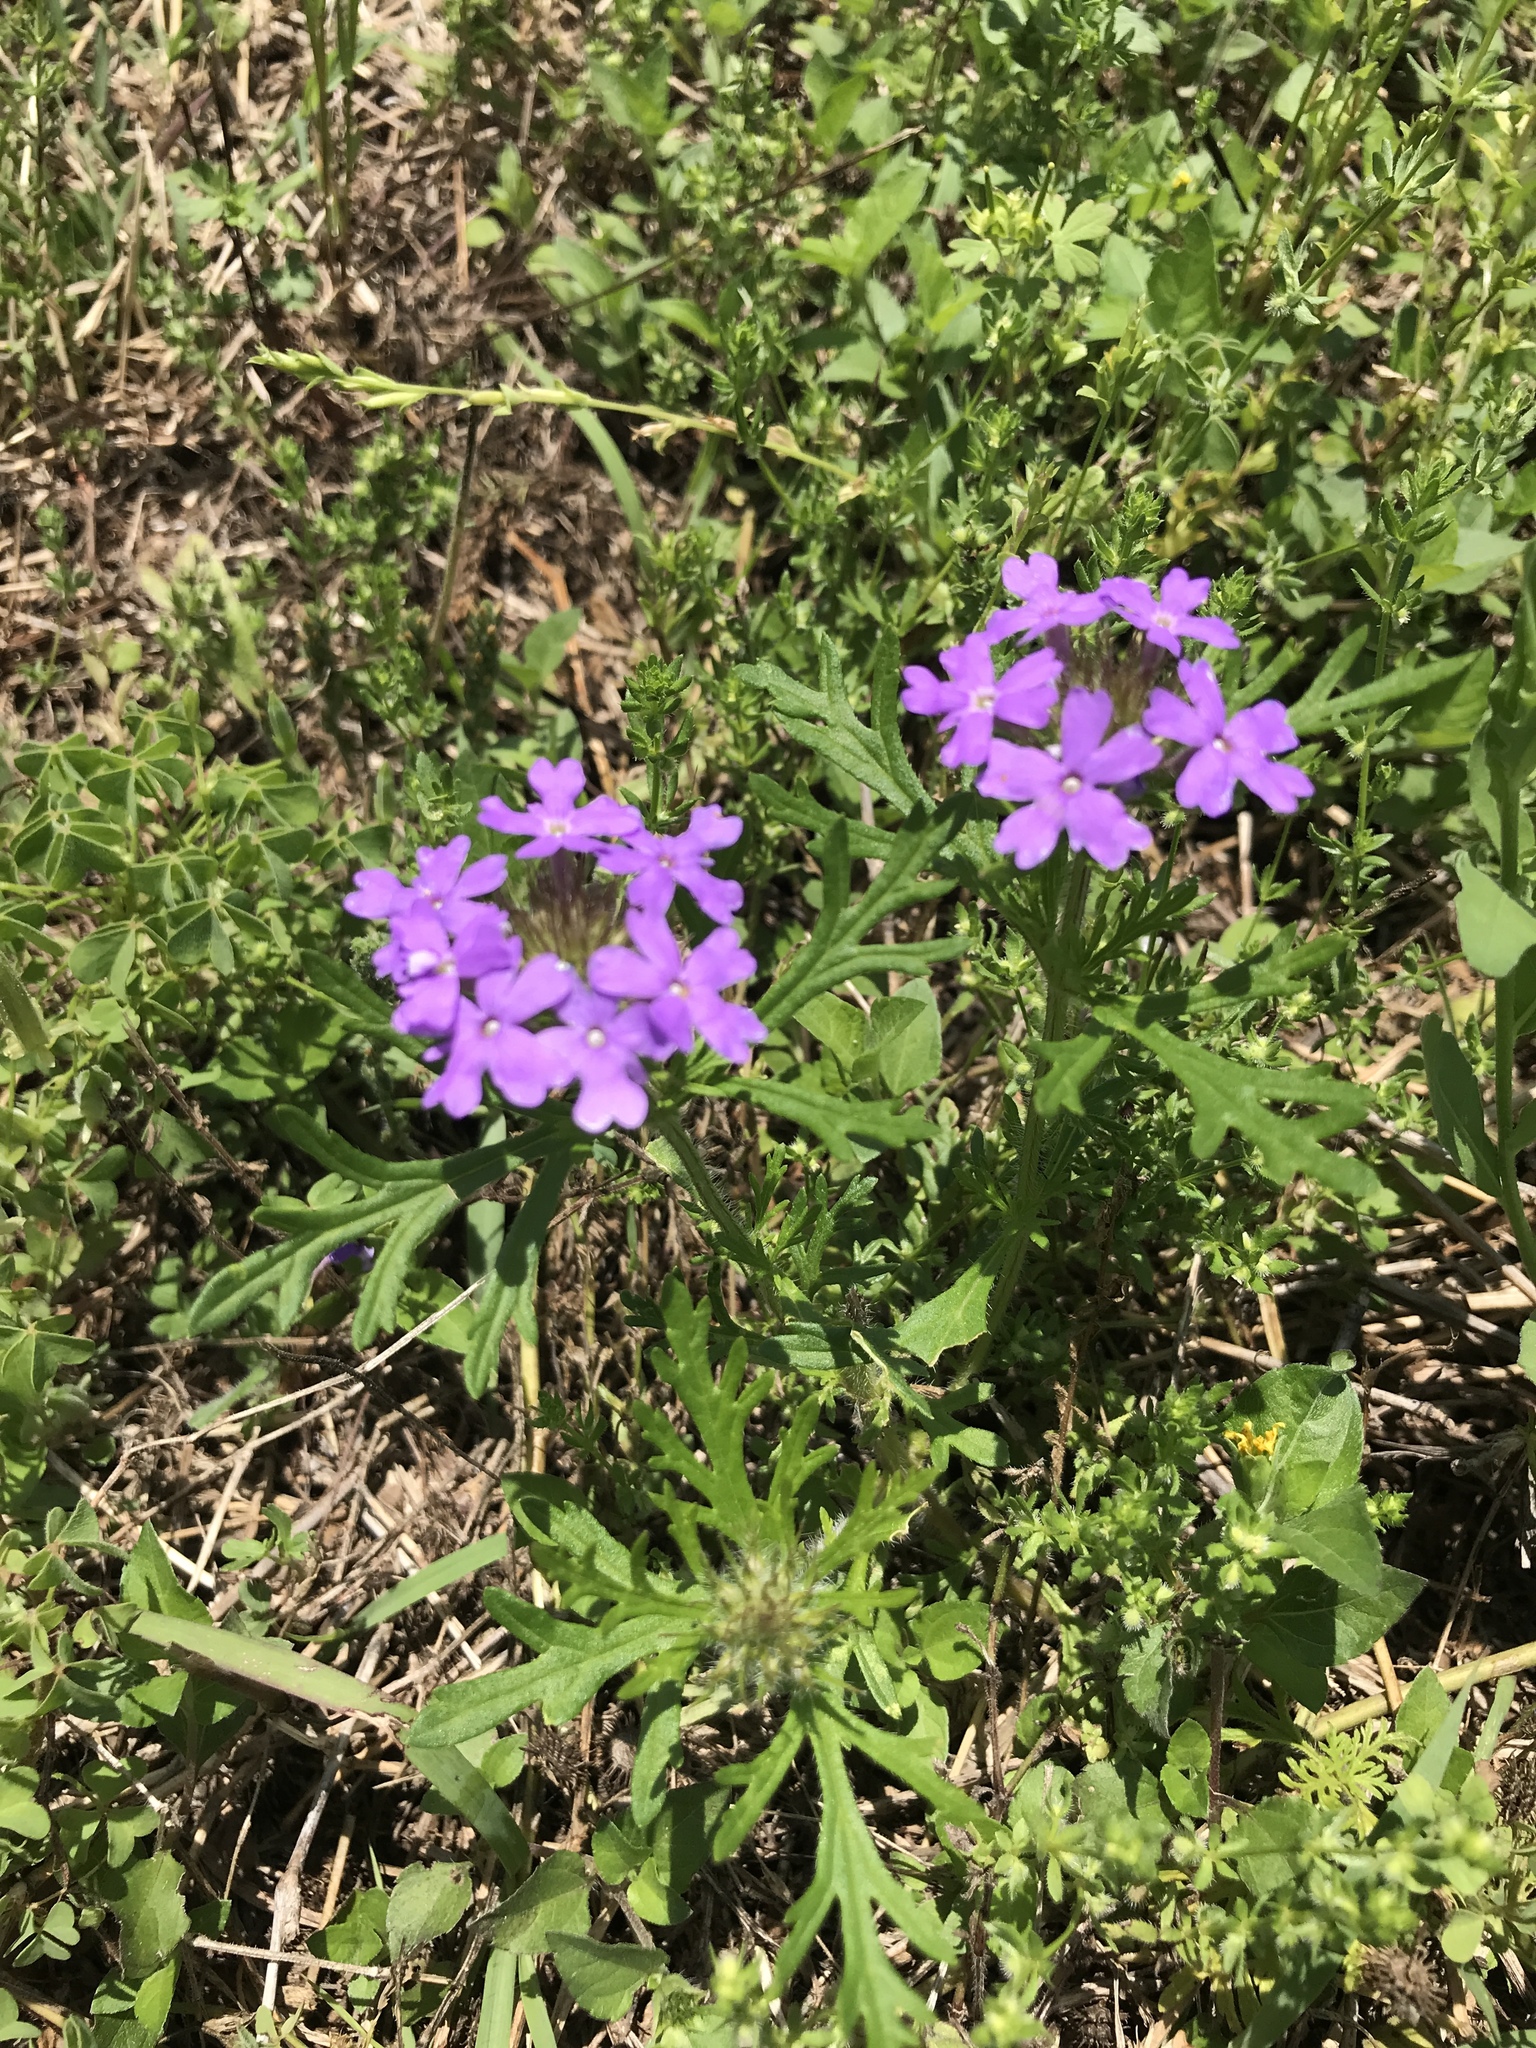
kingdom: Plantae
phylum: Tracheophyta
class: Magnoliopsida
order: Lamiales
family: Verbenaceae
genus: Verbena
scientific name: Verbena bipinnatifida
